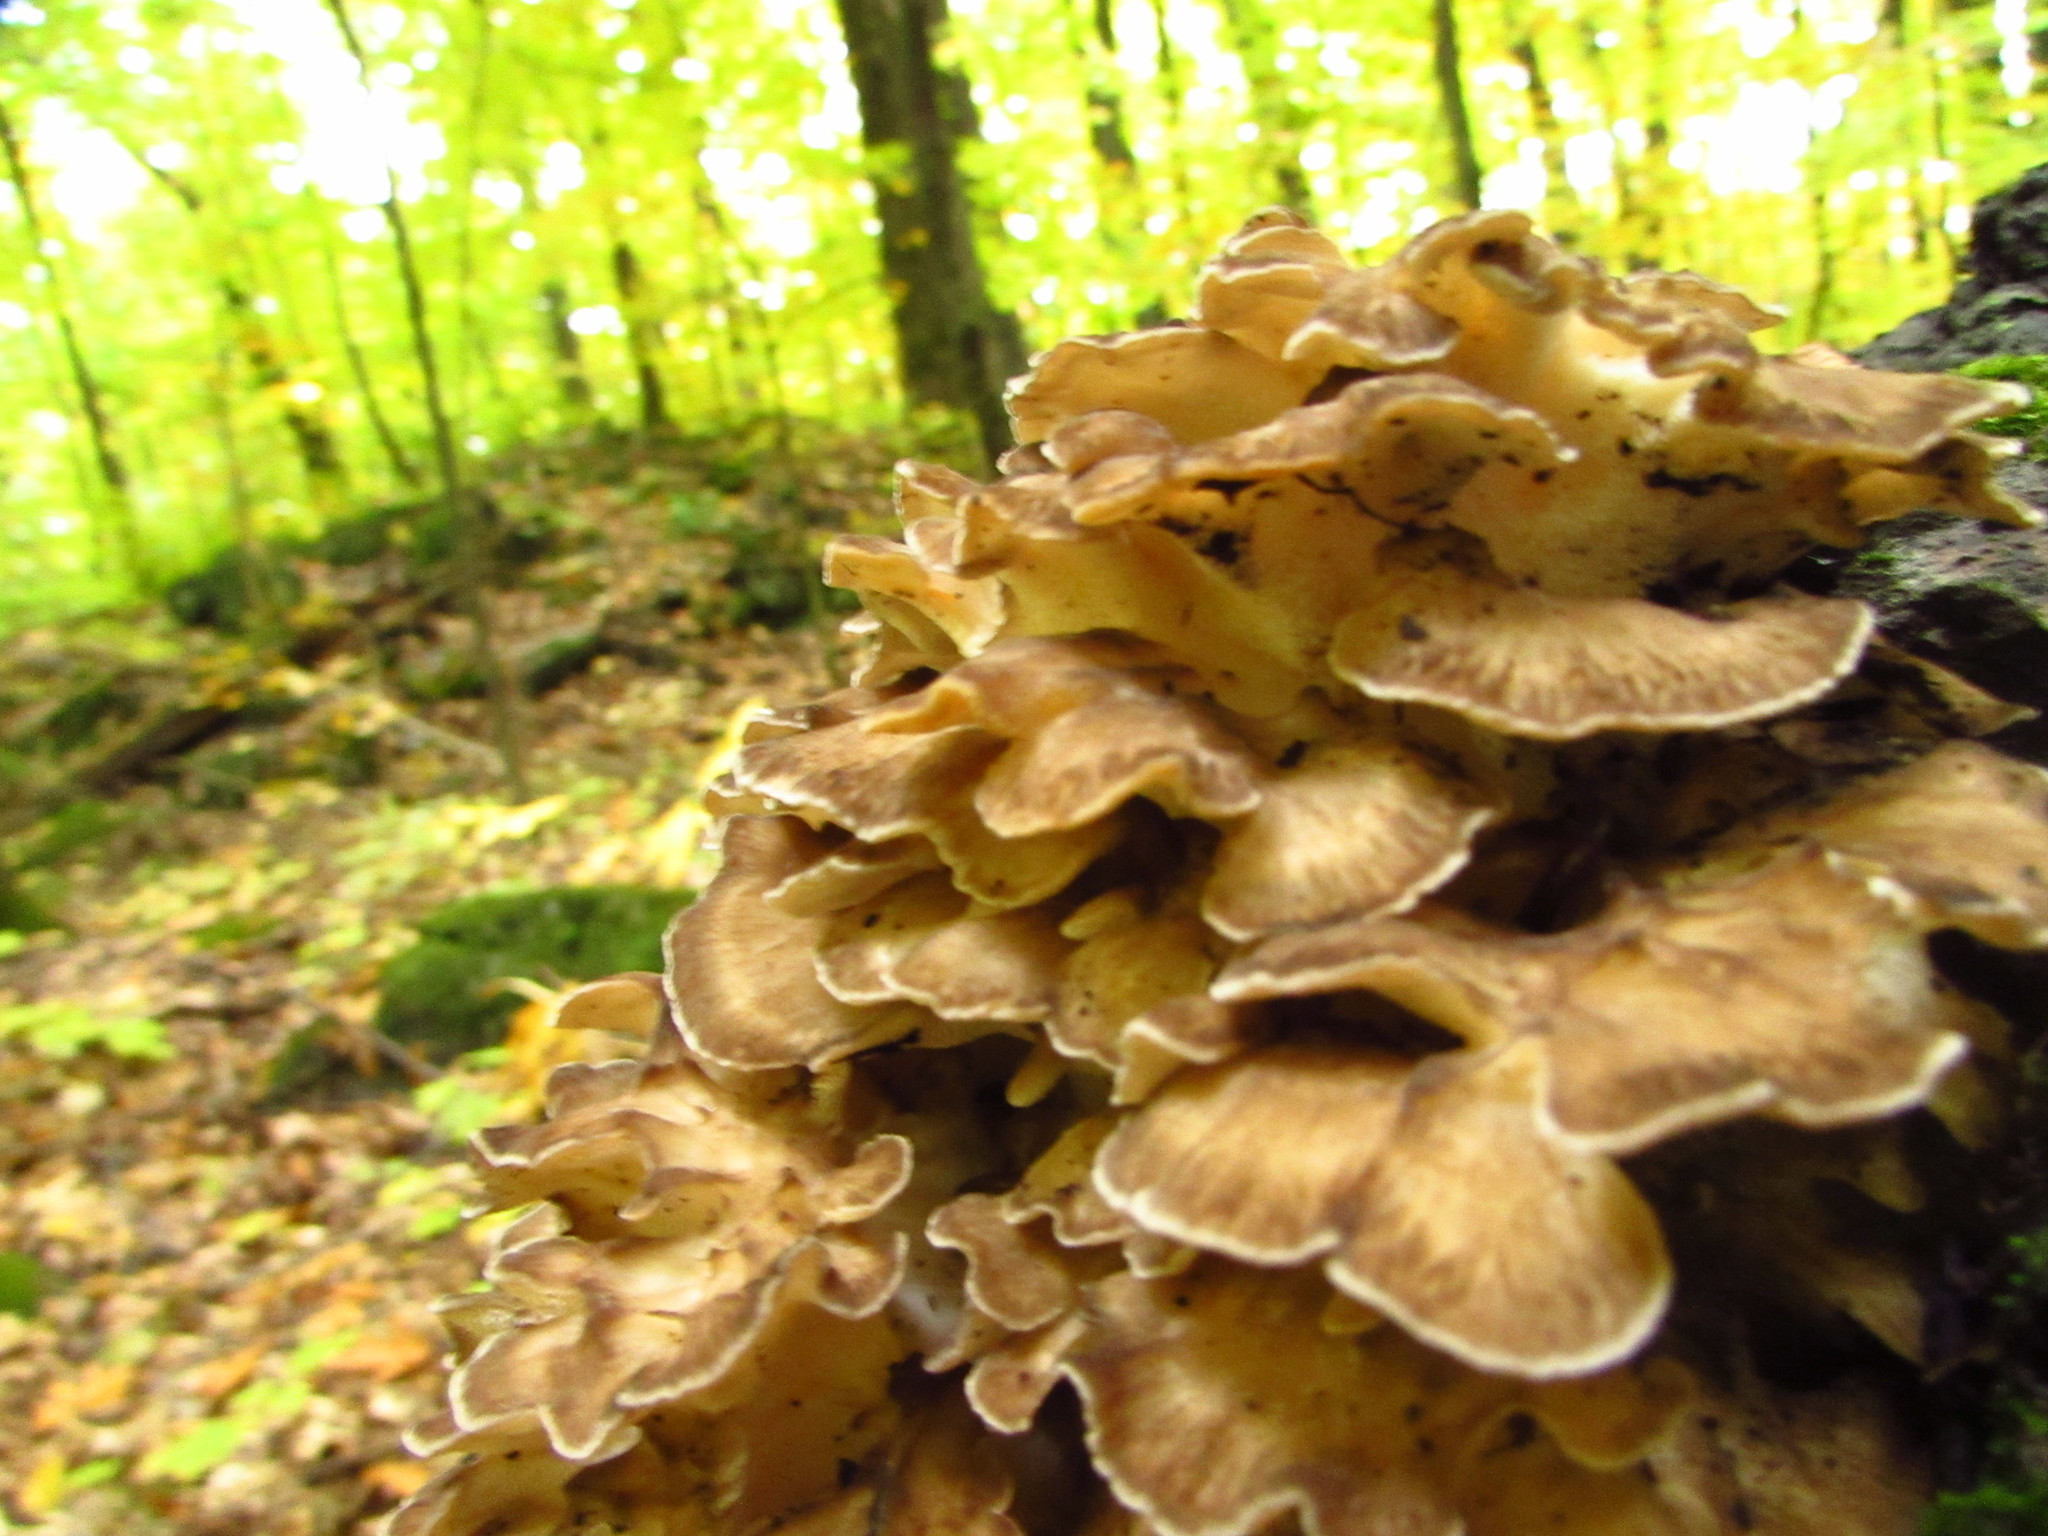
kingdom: Fungi
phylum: Basidiomycota
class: Agaricomycetes
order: Polyporales
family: Grifolaceae
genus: Grifola
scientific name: Grifola frondosa
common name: Hen of the woods
